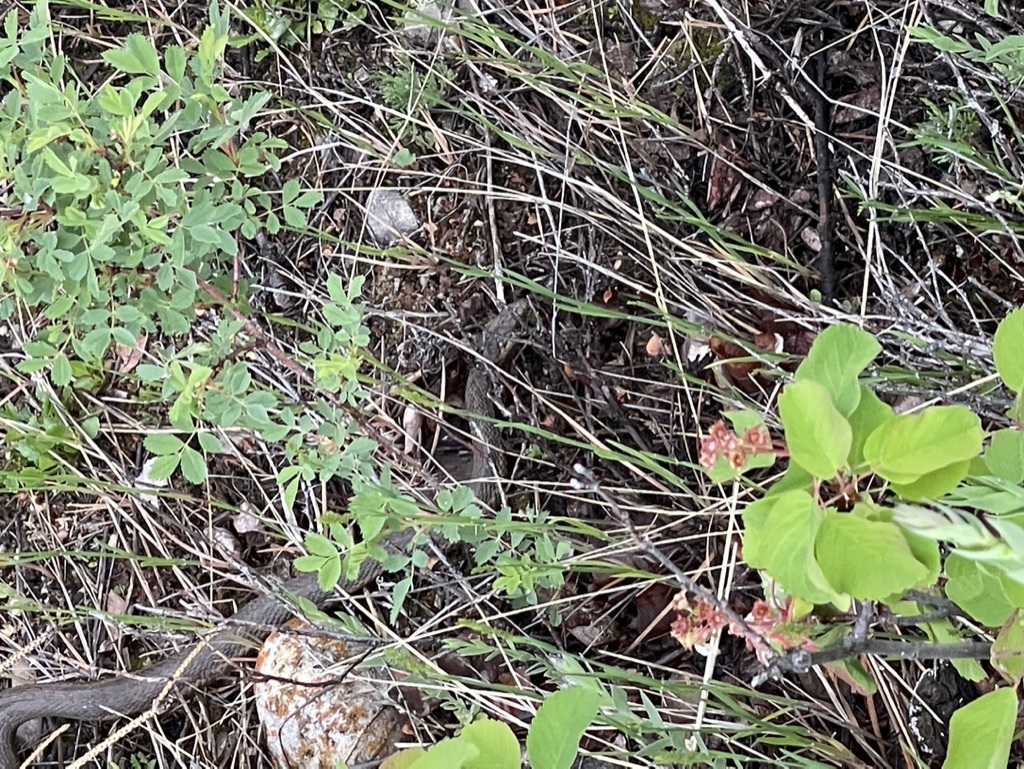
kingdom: Animalia
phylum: Chordata
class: Squamata
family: Colubridae
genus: Thamnophis
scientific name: Thamnophis elegans
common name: Western terrestrial garter snake
